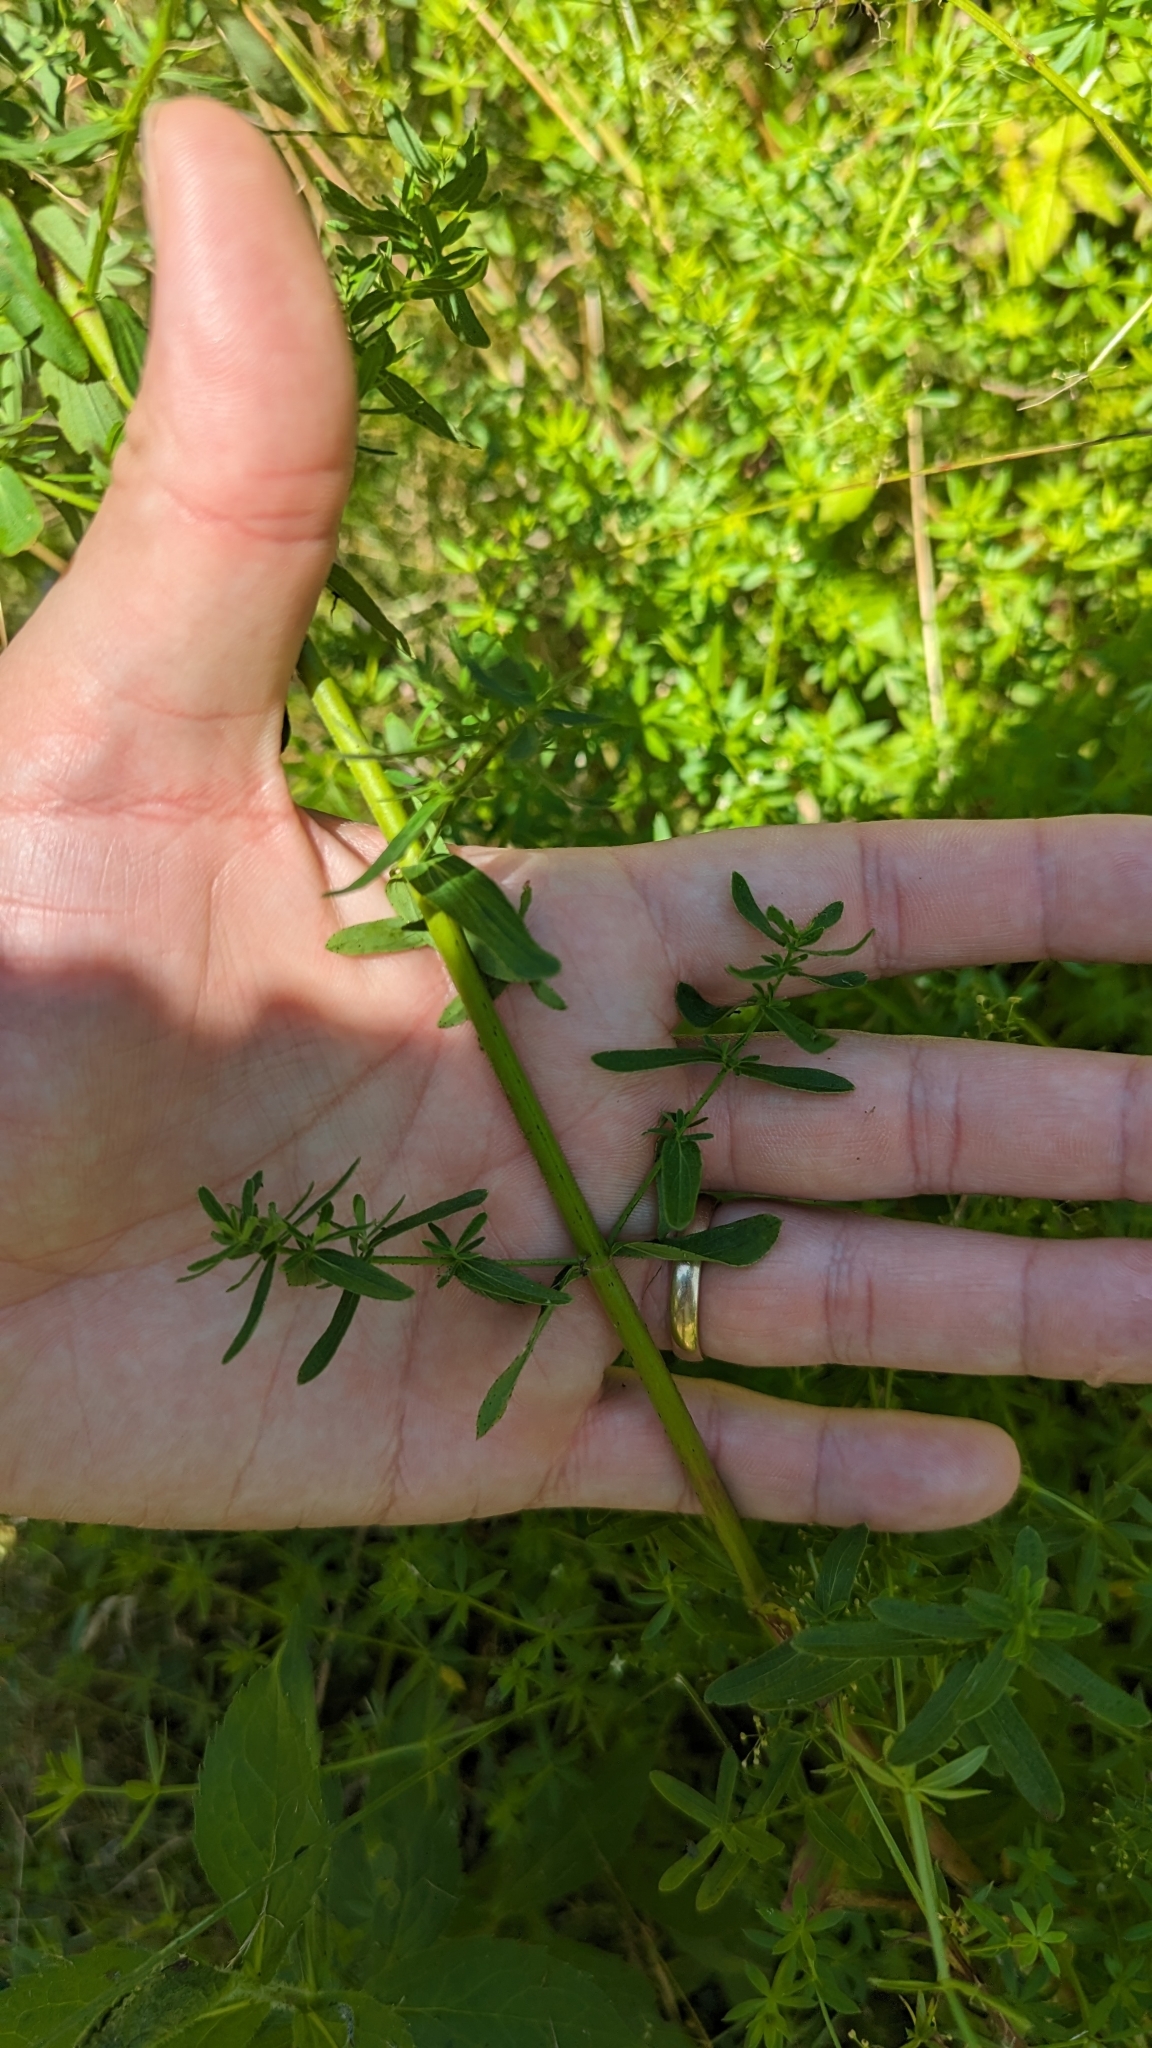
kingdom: Plantae
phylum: Tracheophyta
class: Magnoliopsida
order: Malpighiales
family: Hypericaceae
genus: Hypericum
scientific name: Hypericum perforatum
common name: Common st. johnswort
